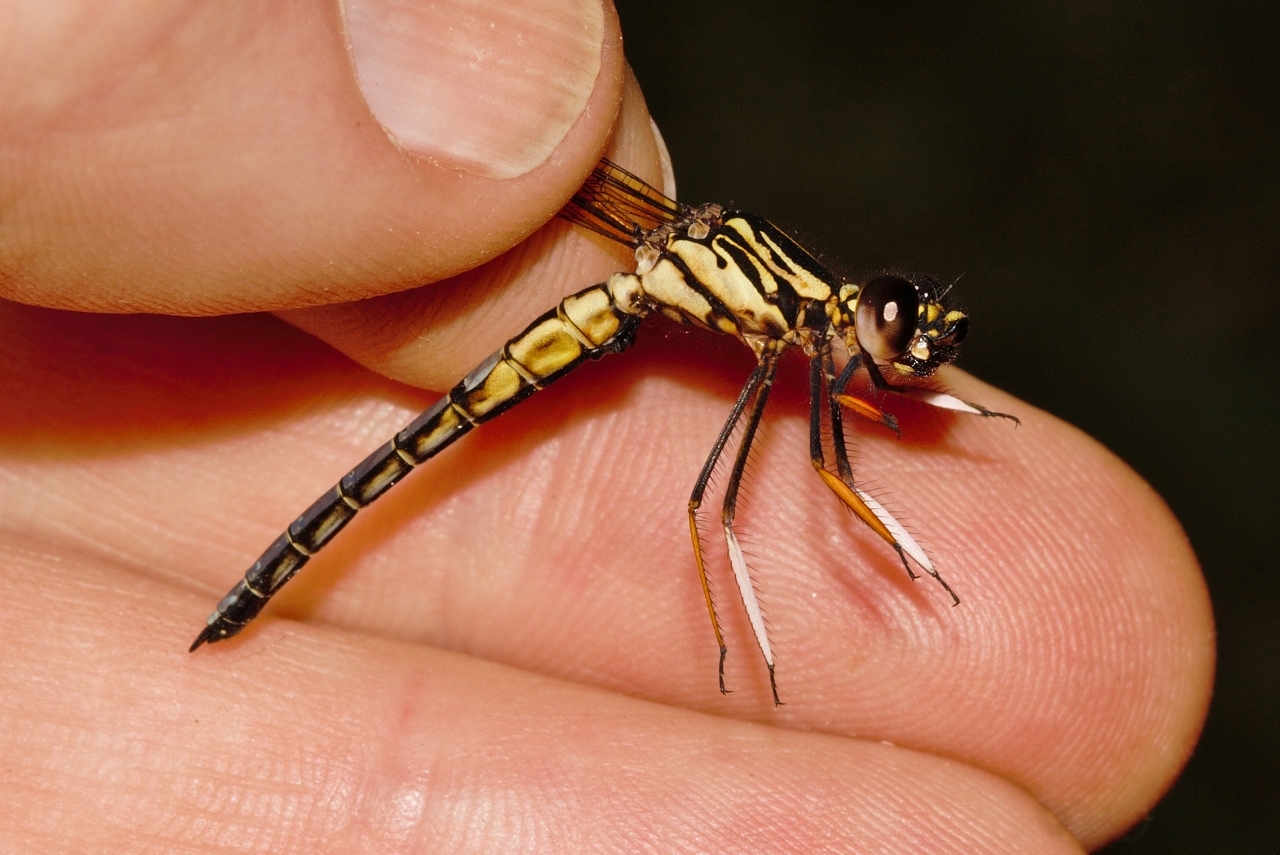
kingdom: Animalia
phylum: Arthropoda
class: Insecta
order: Odonata
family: Chlorocyphidae
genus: Platycypha
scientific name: Platycypha caligata
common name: Dancing jewel
